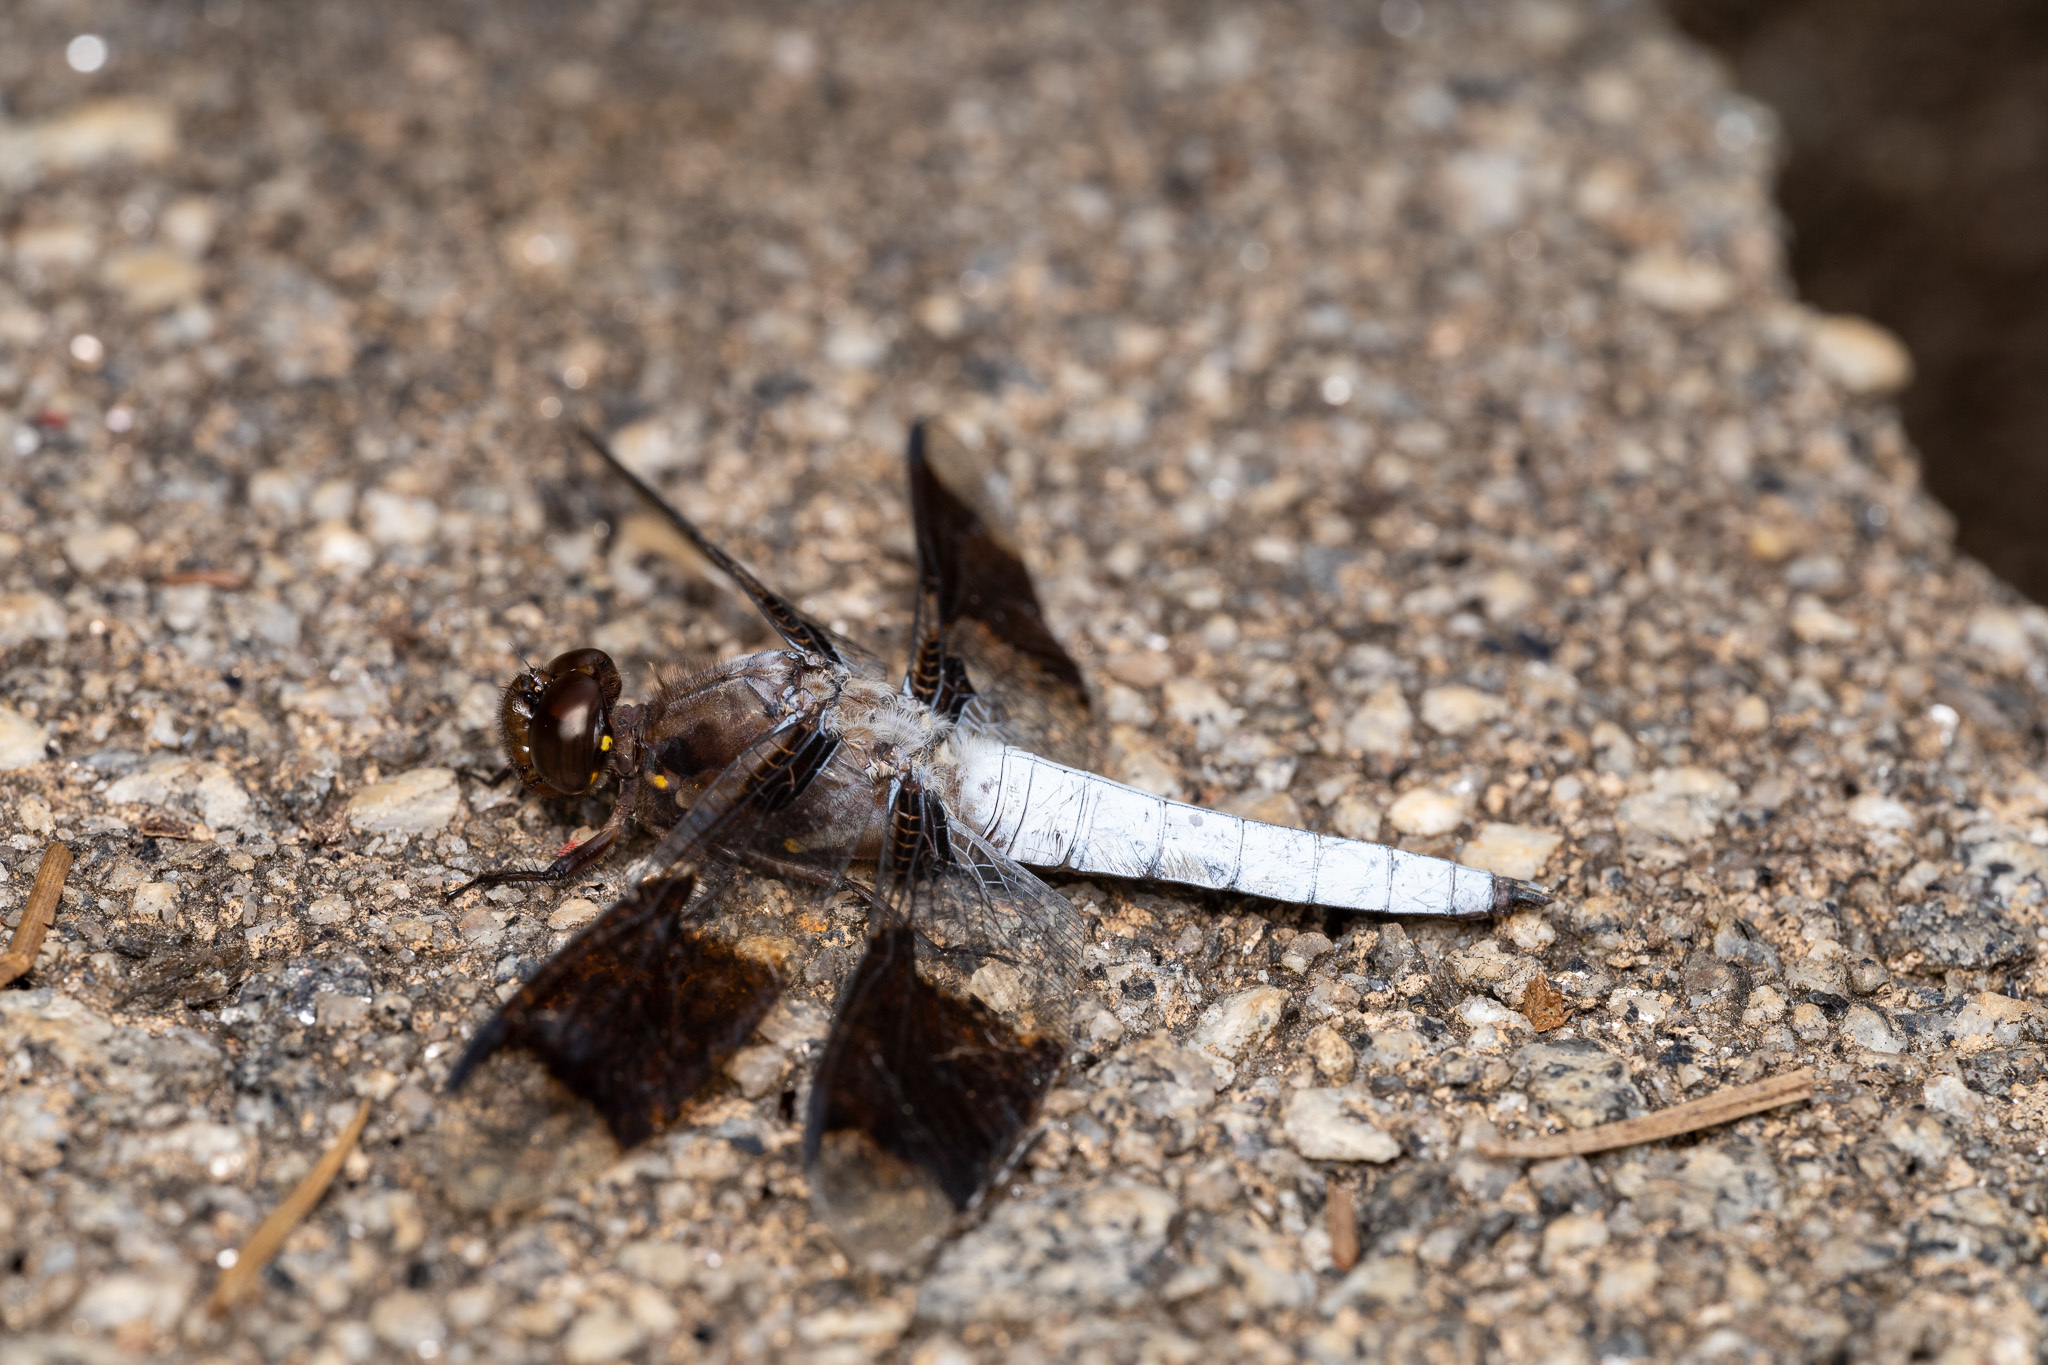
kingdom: Animalia
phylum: Arthropoda
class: Insecta
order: Odonata
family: Libellulidae
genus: Plathemis
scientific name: Plathemis lydia
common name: Common whitetail
